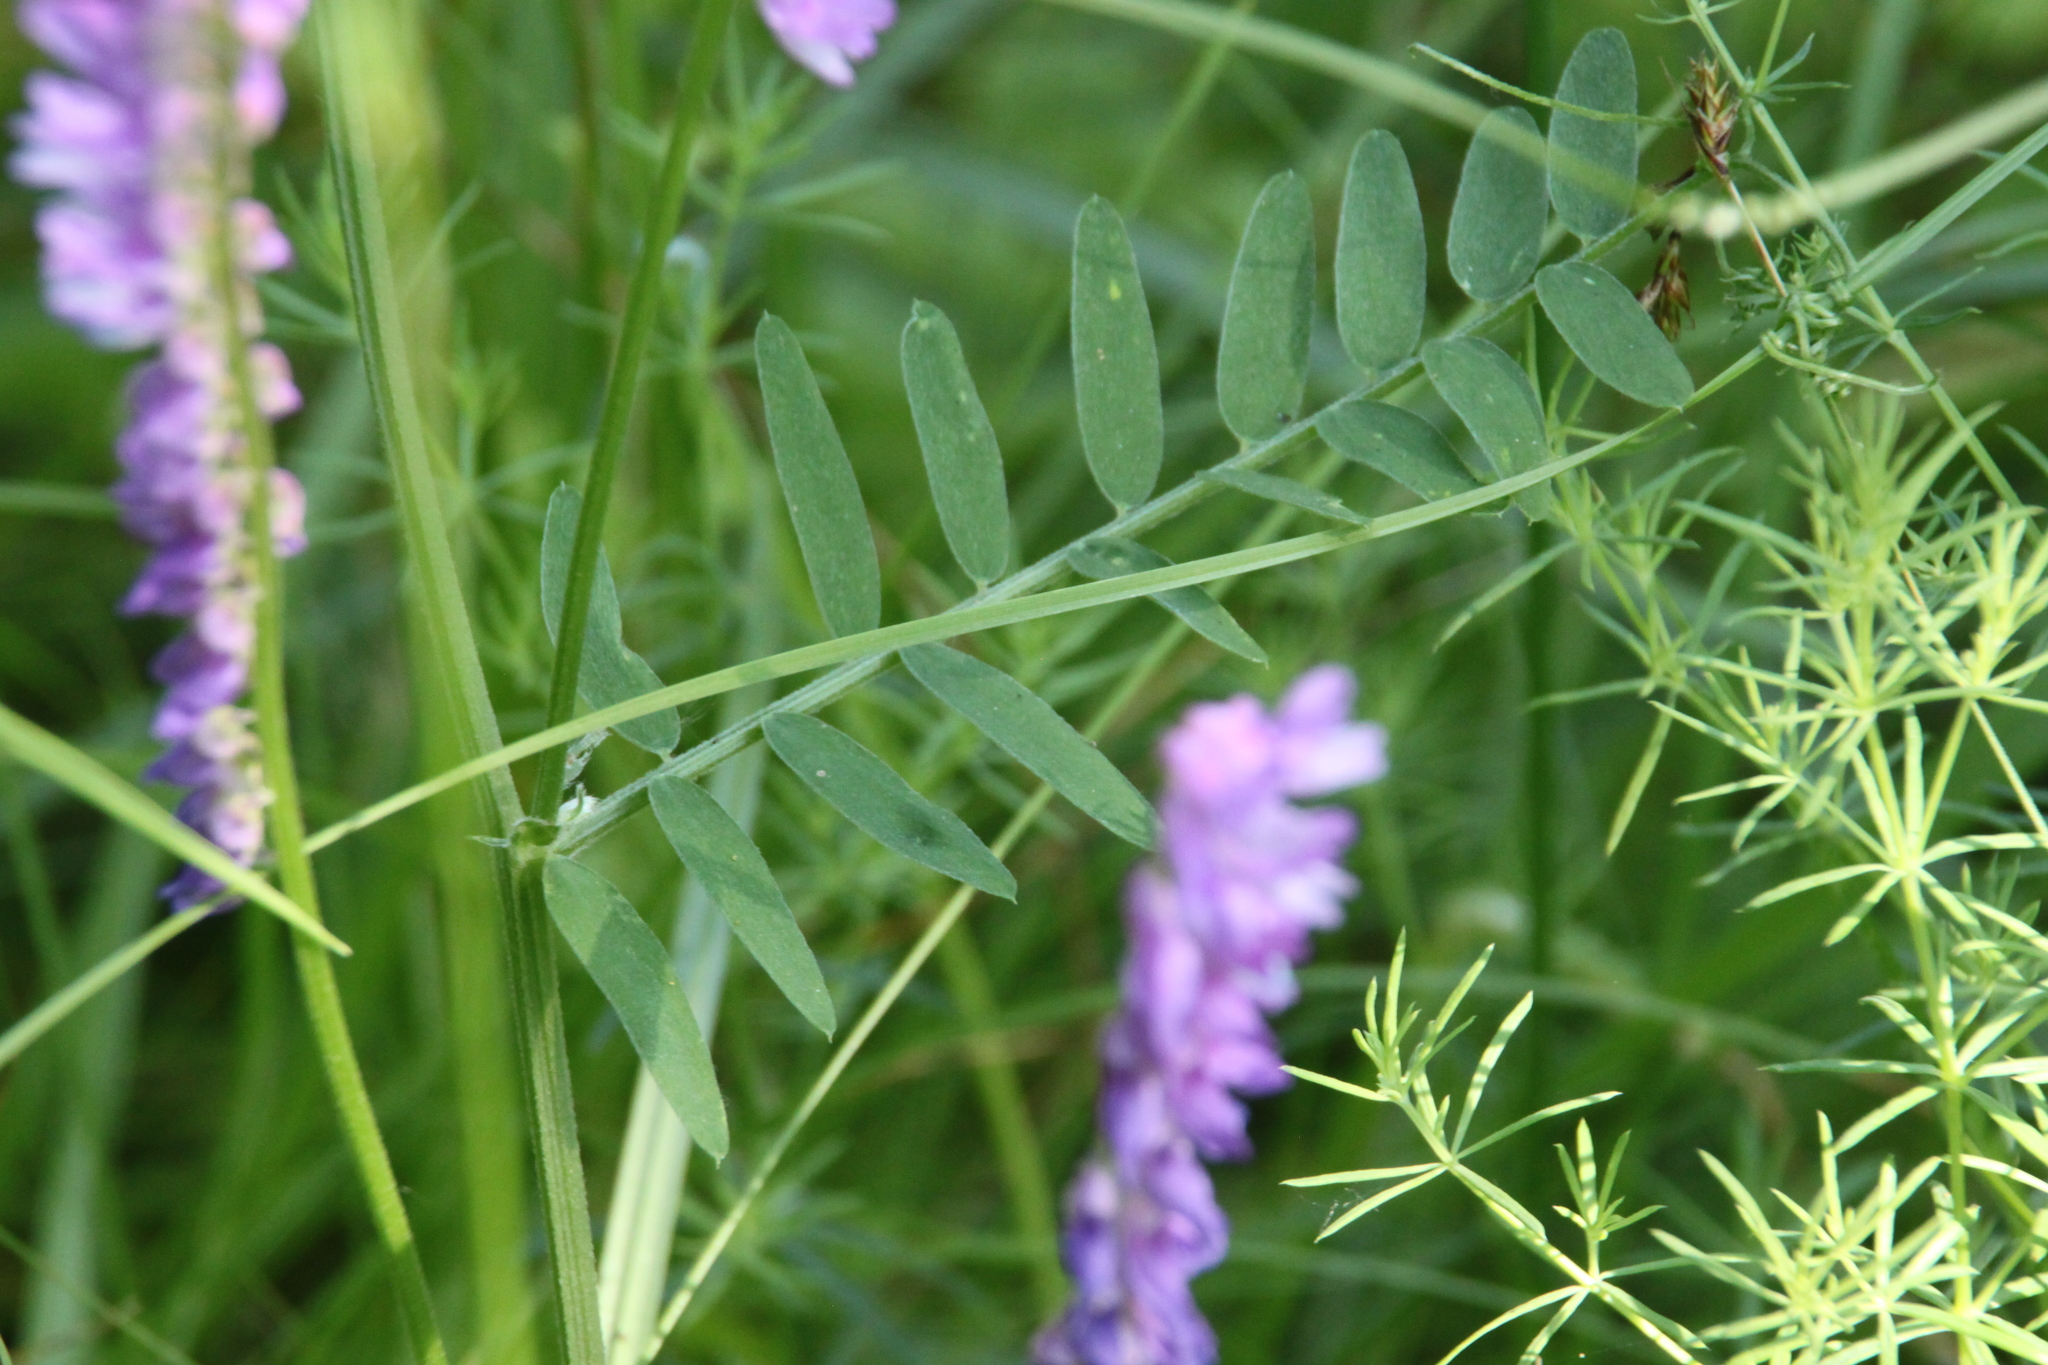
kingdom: Plantae
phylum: Tracheophyta
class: Magnoliopsida
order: Fabales
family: Fabaceae
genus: Vicia
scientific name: Vicia cracca
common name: Bird vetch
